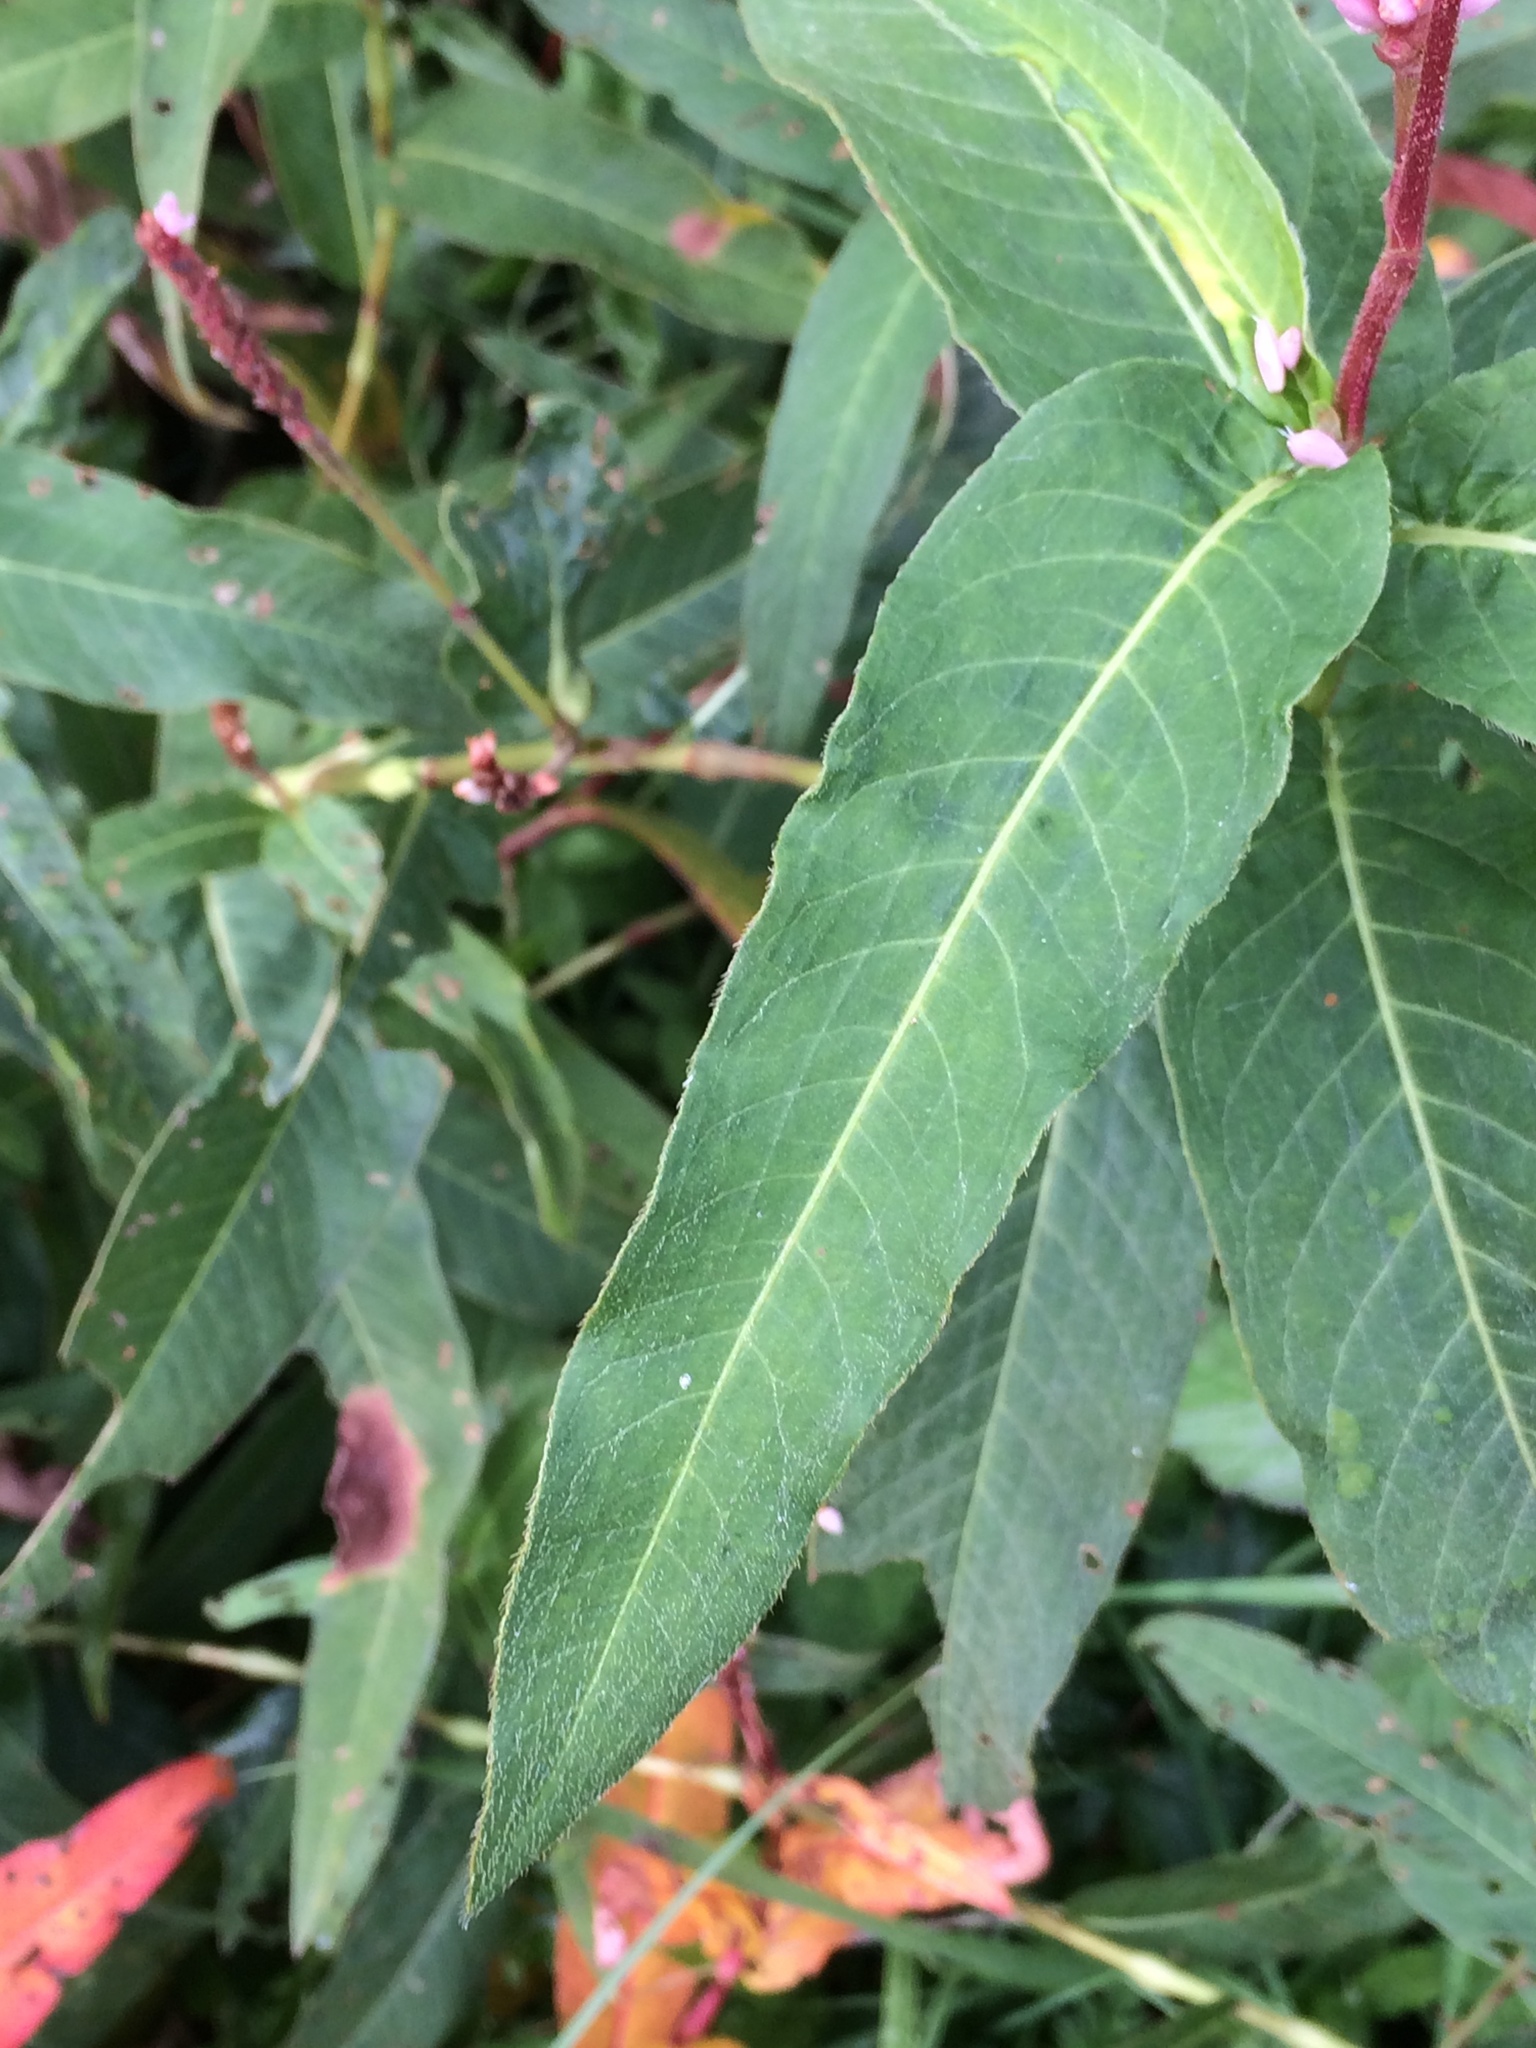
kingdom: Plantae
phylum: Tracheophyta
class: Magnoliopsida
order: Caryophyllales
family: Polygonaceae
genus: Persicaria
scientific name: Persicaria amphibia
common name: Amphibious bistort
